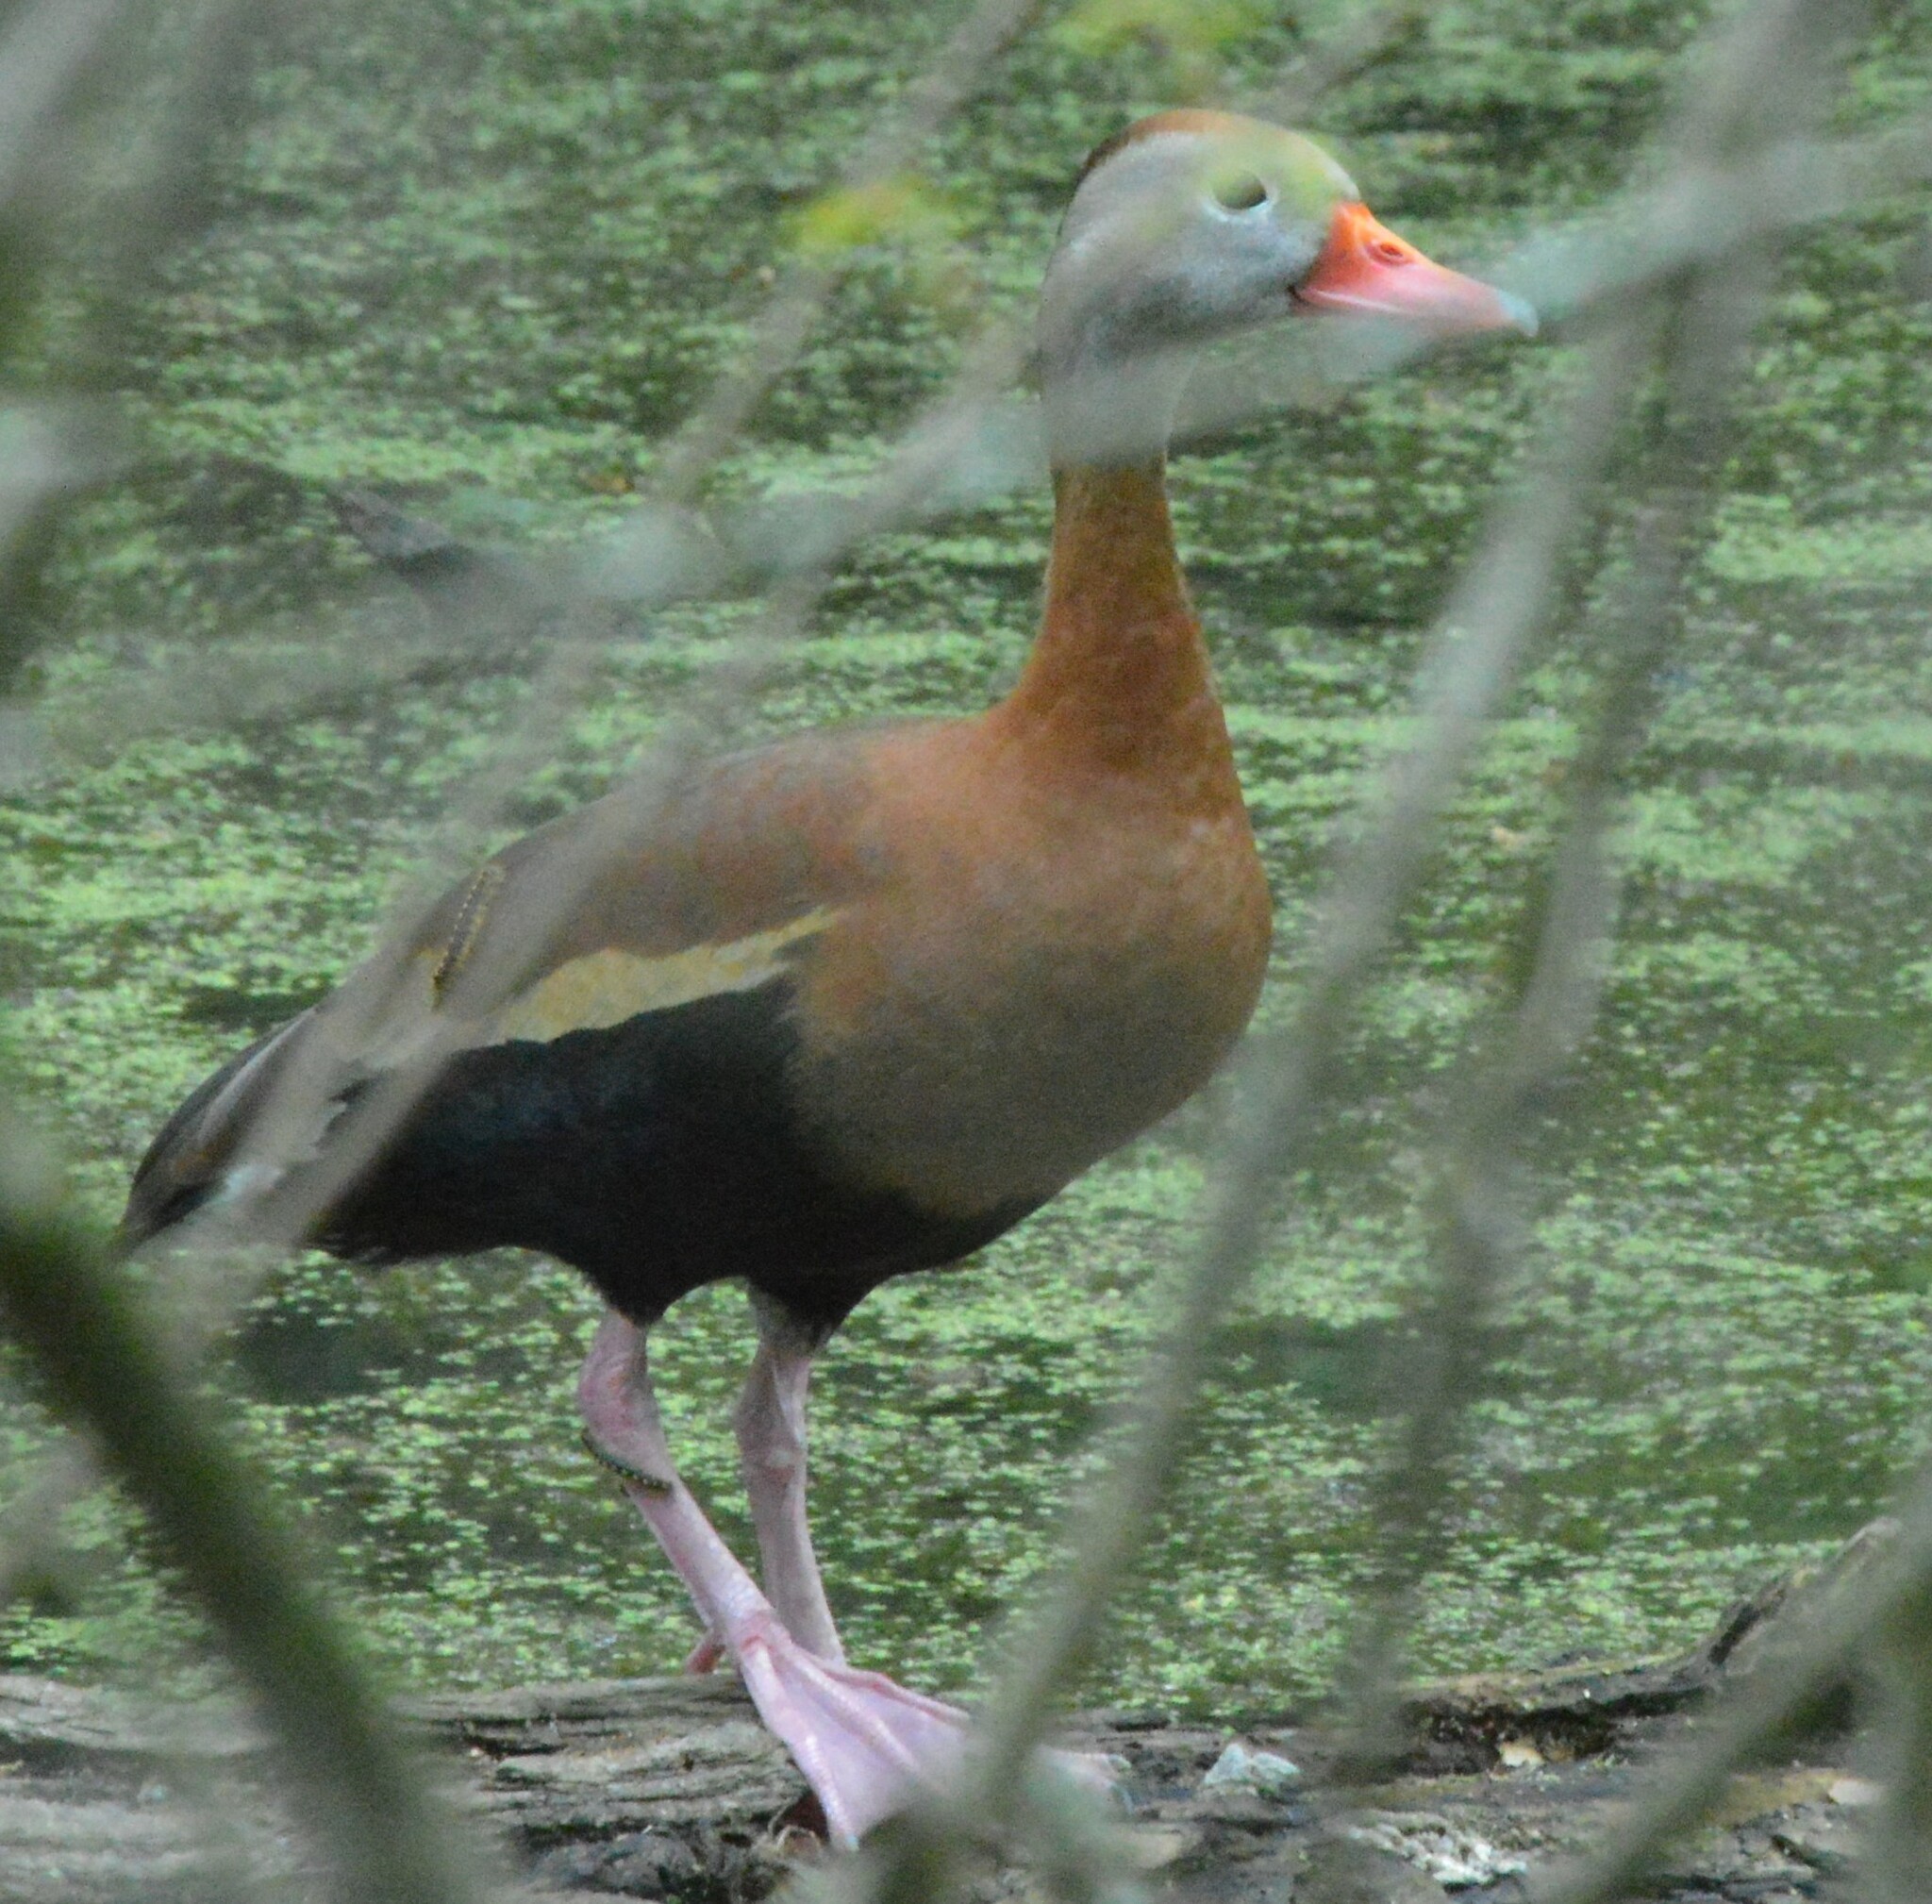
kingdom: Animalia
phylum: Chordata
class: Aves
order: Anseriformes
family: Anatidae
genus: Dendrocygna
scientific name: Dendrocygna autumnalis
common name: Black-bellied whistling duck
